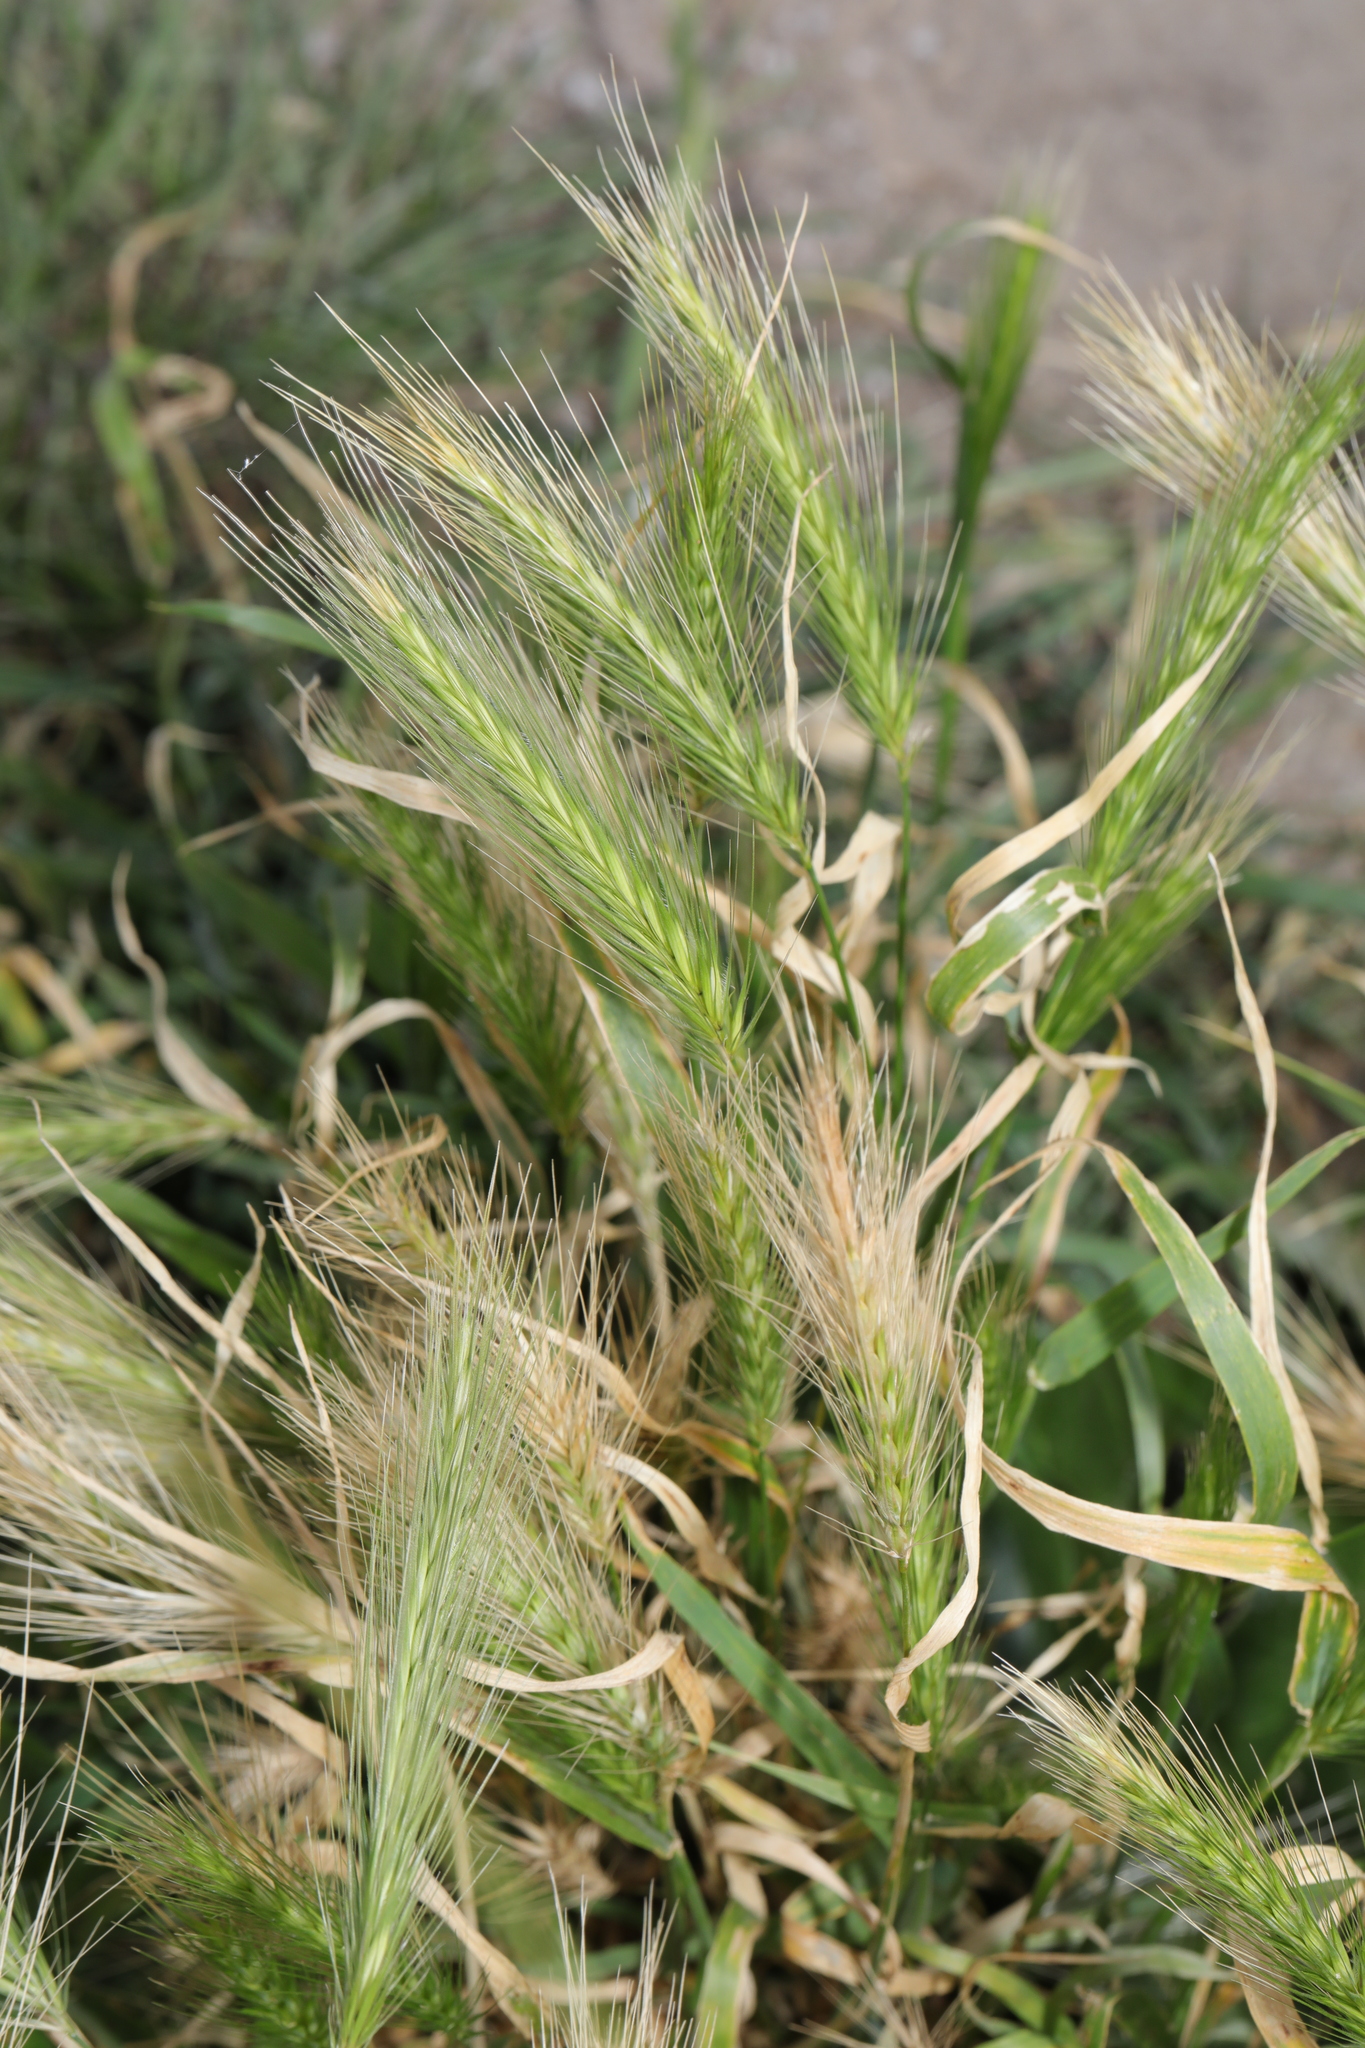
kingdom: Plantae
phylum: Tracheophyta
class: Liliopsida
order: Poales
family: Poaceae
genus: Hordeum
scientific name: Hordeum murinum
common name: Wall barley
